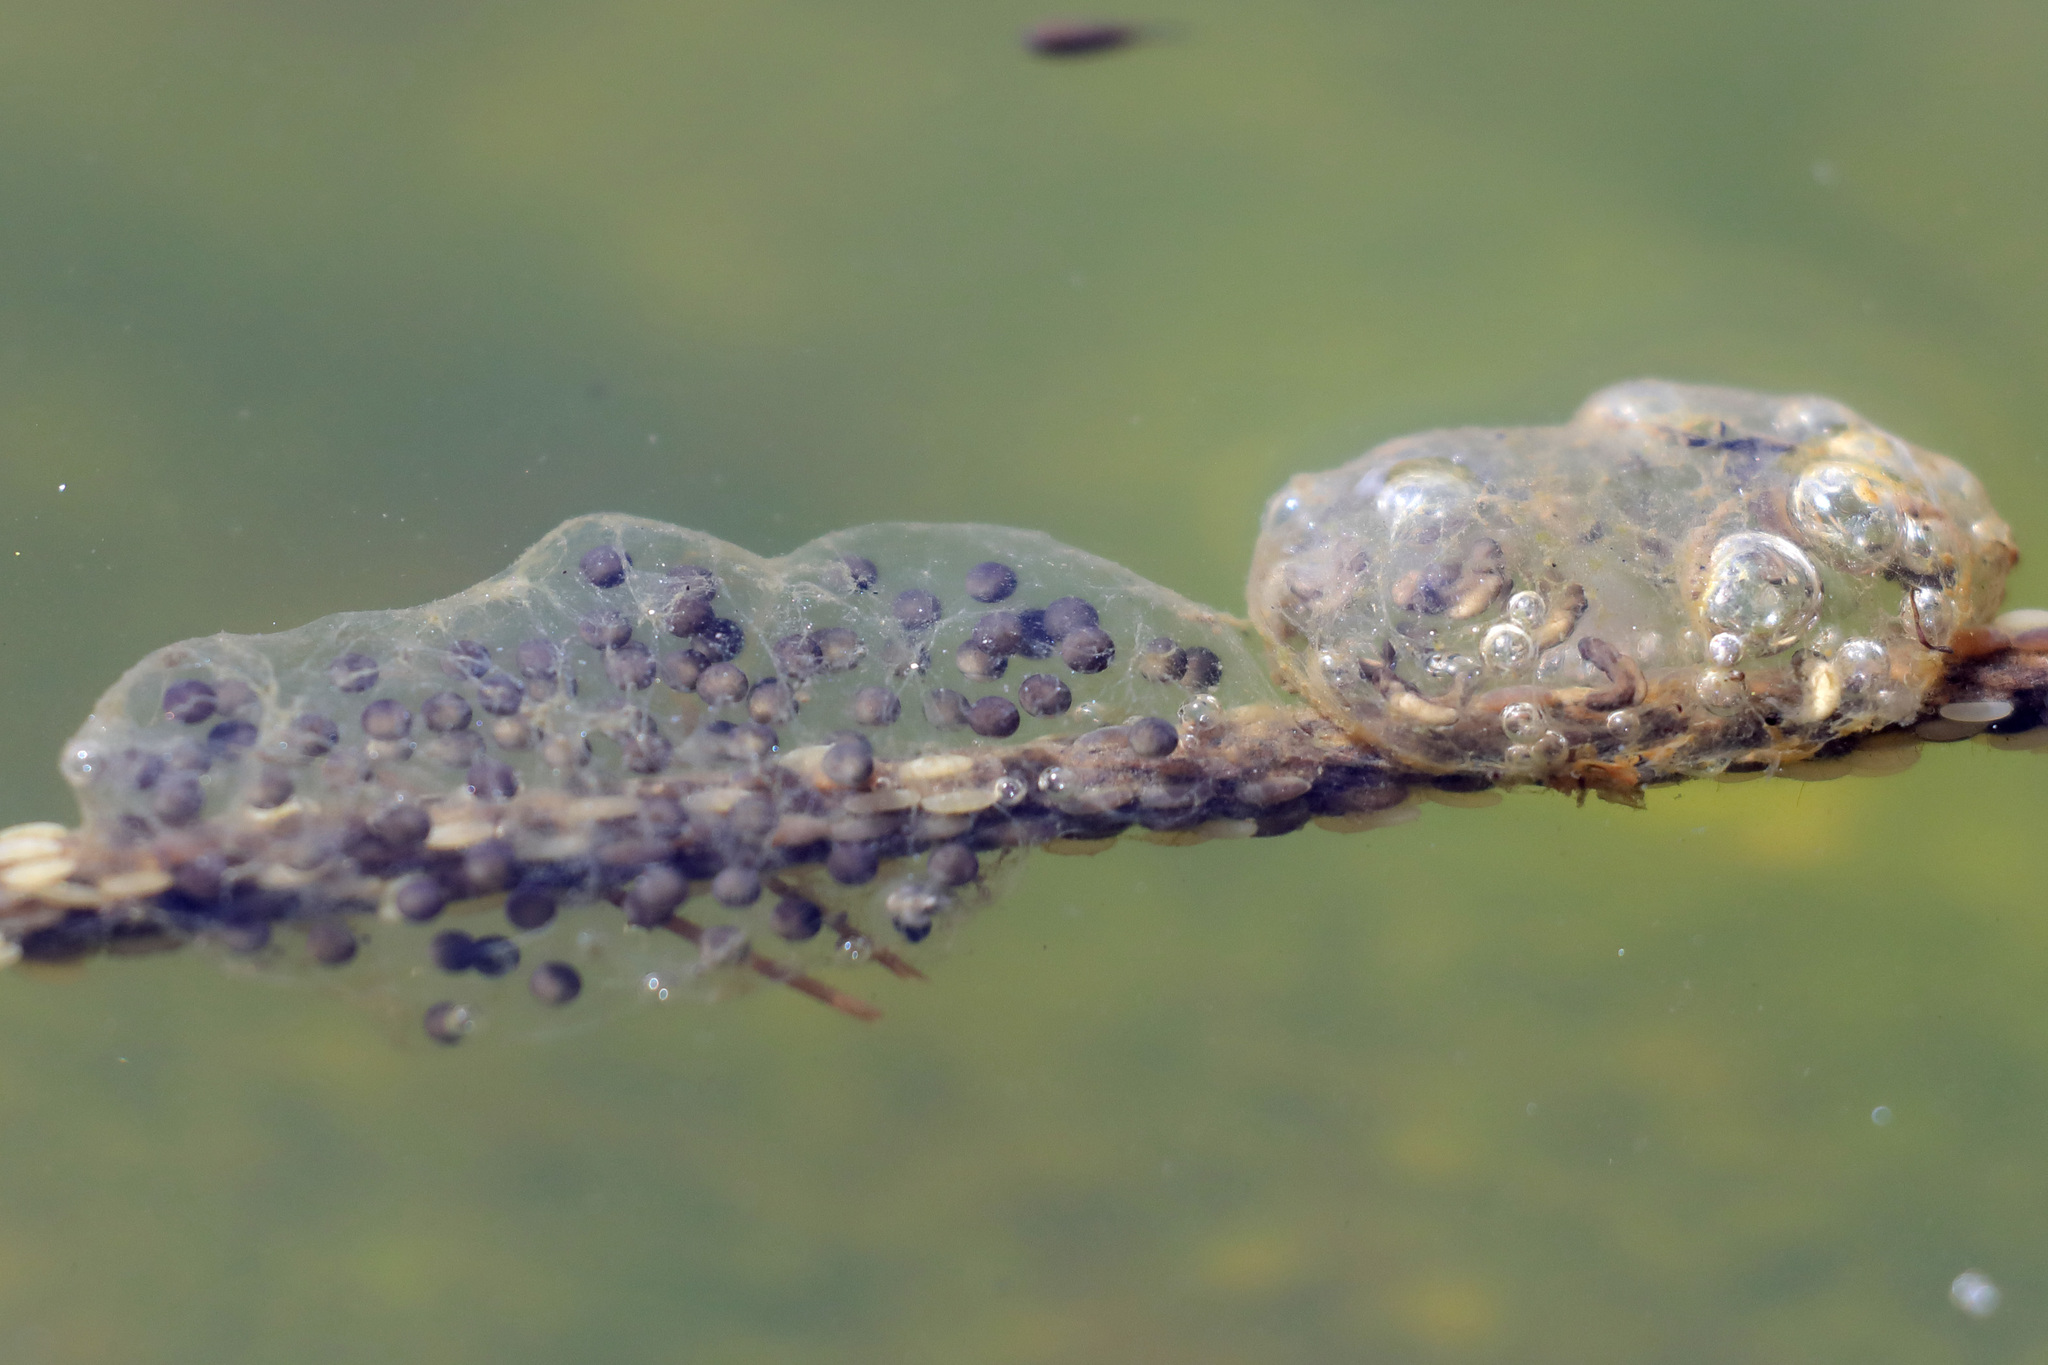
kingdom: Animalia
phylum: Chordata
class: Amphibia
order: Anura
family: Hylidae
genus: Pseudacris
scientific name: Pseudacris regilla
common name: Pacific chorus frog
